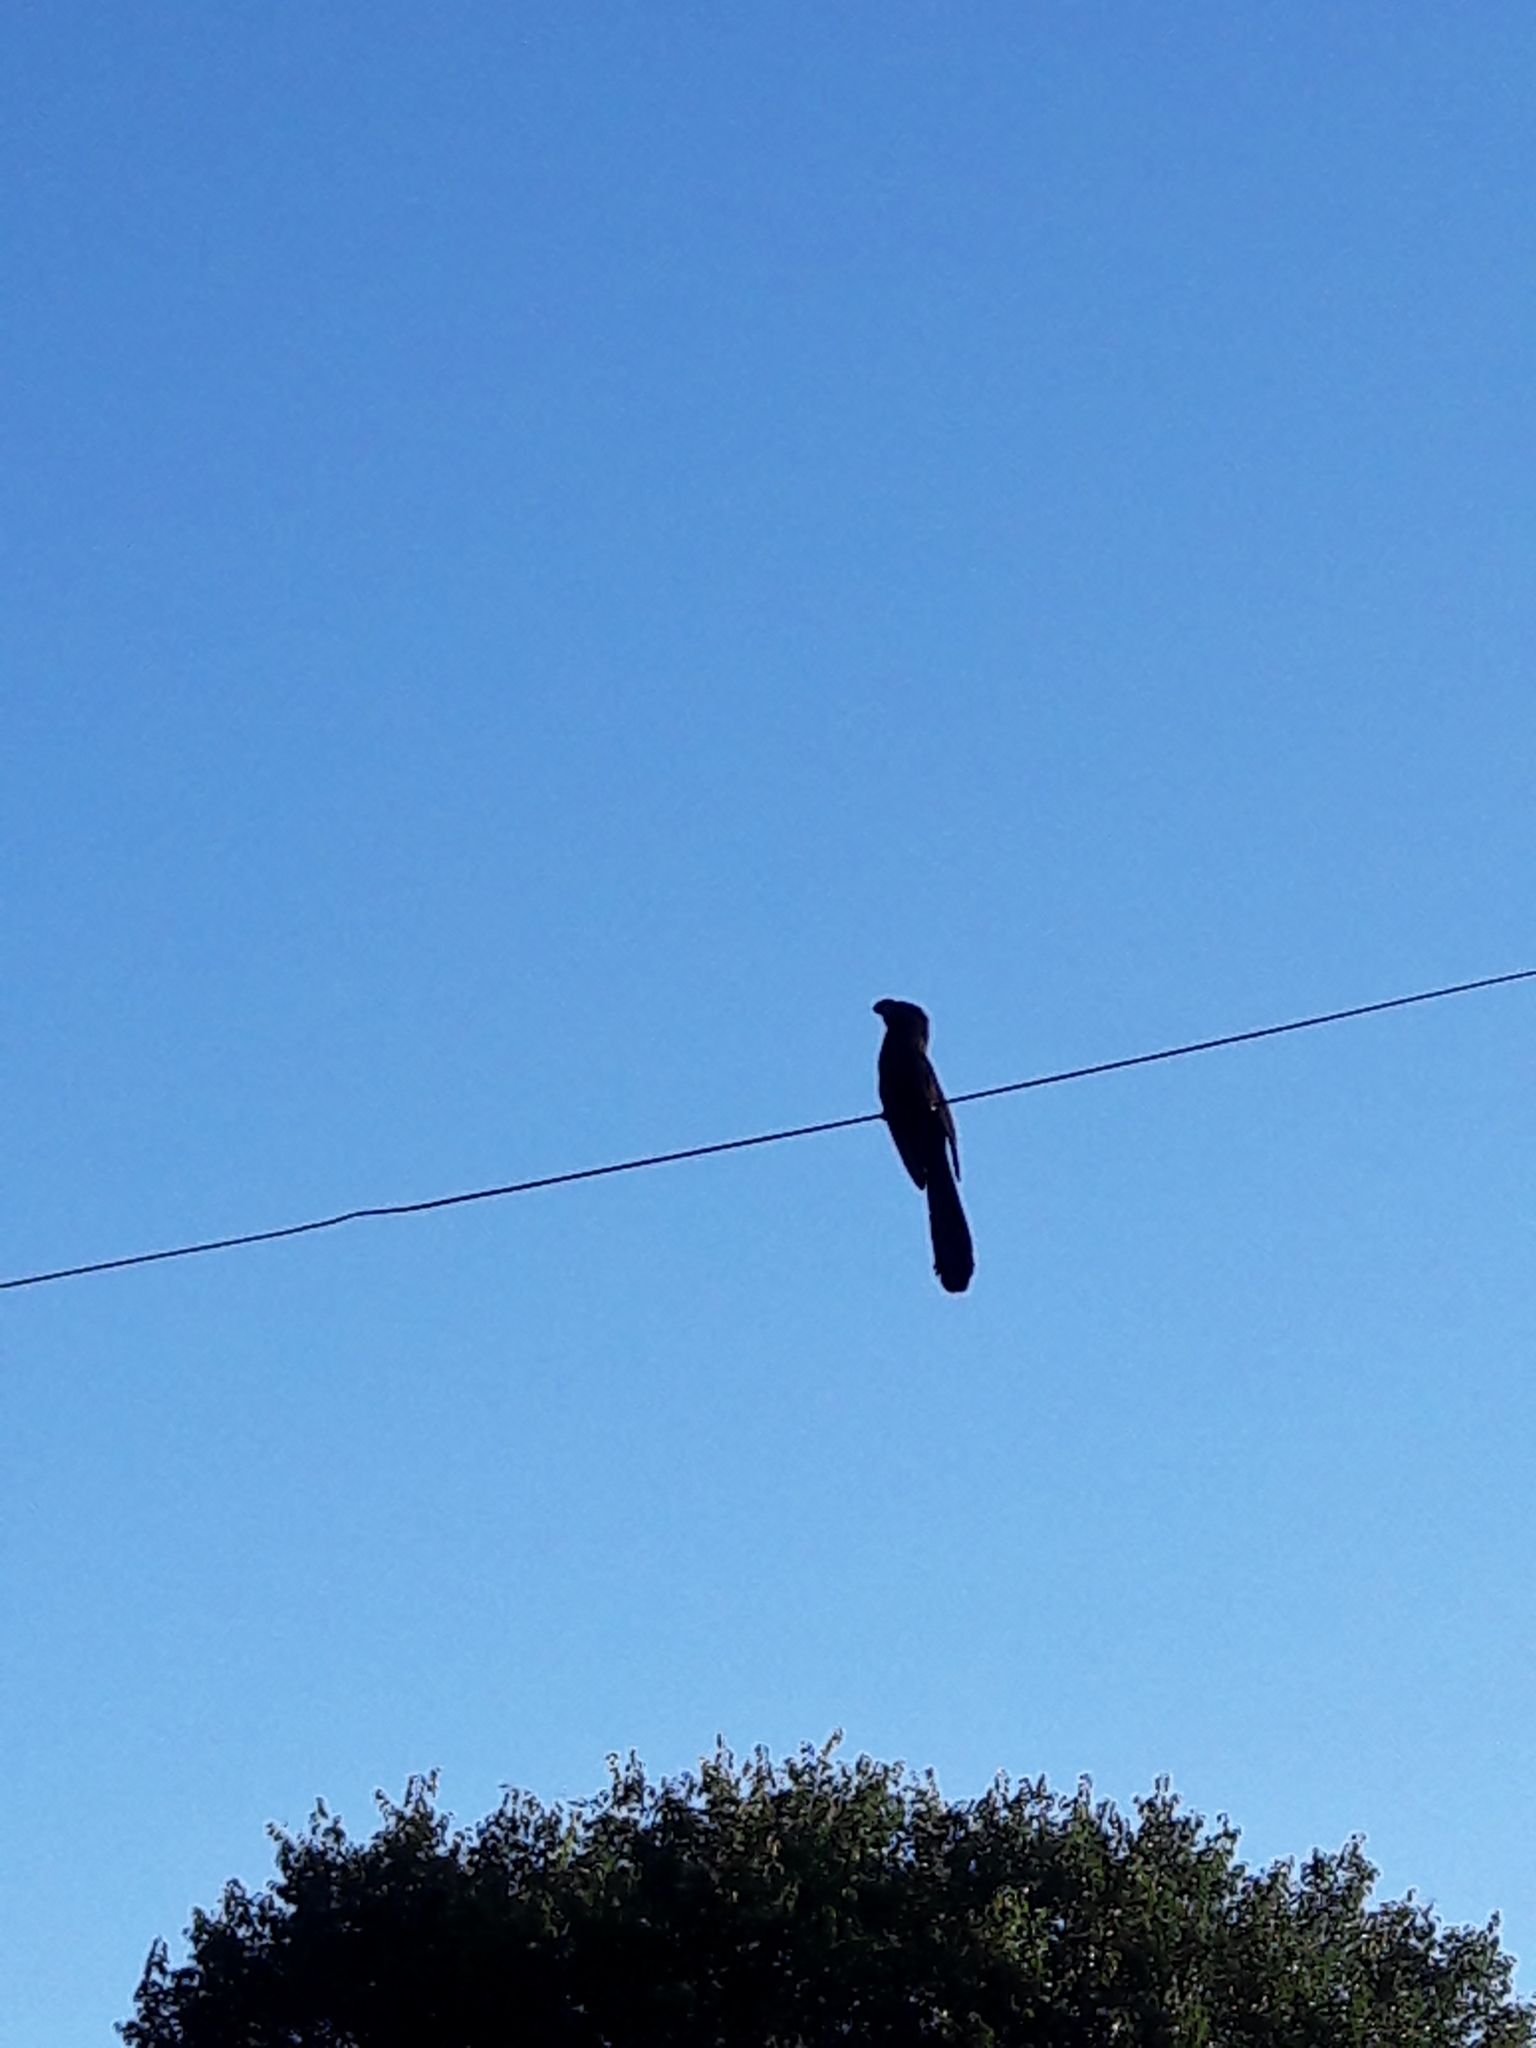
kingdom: Animalia
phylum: Chordata
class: Aves
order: Cuculiformes
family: Cuculidae
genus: Crotophaga
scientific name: Crotophaga ani
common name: Smooth-billed ani
